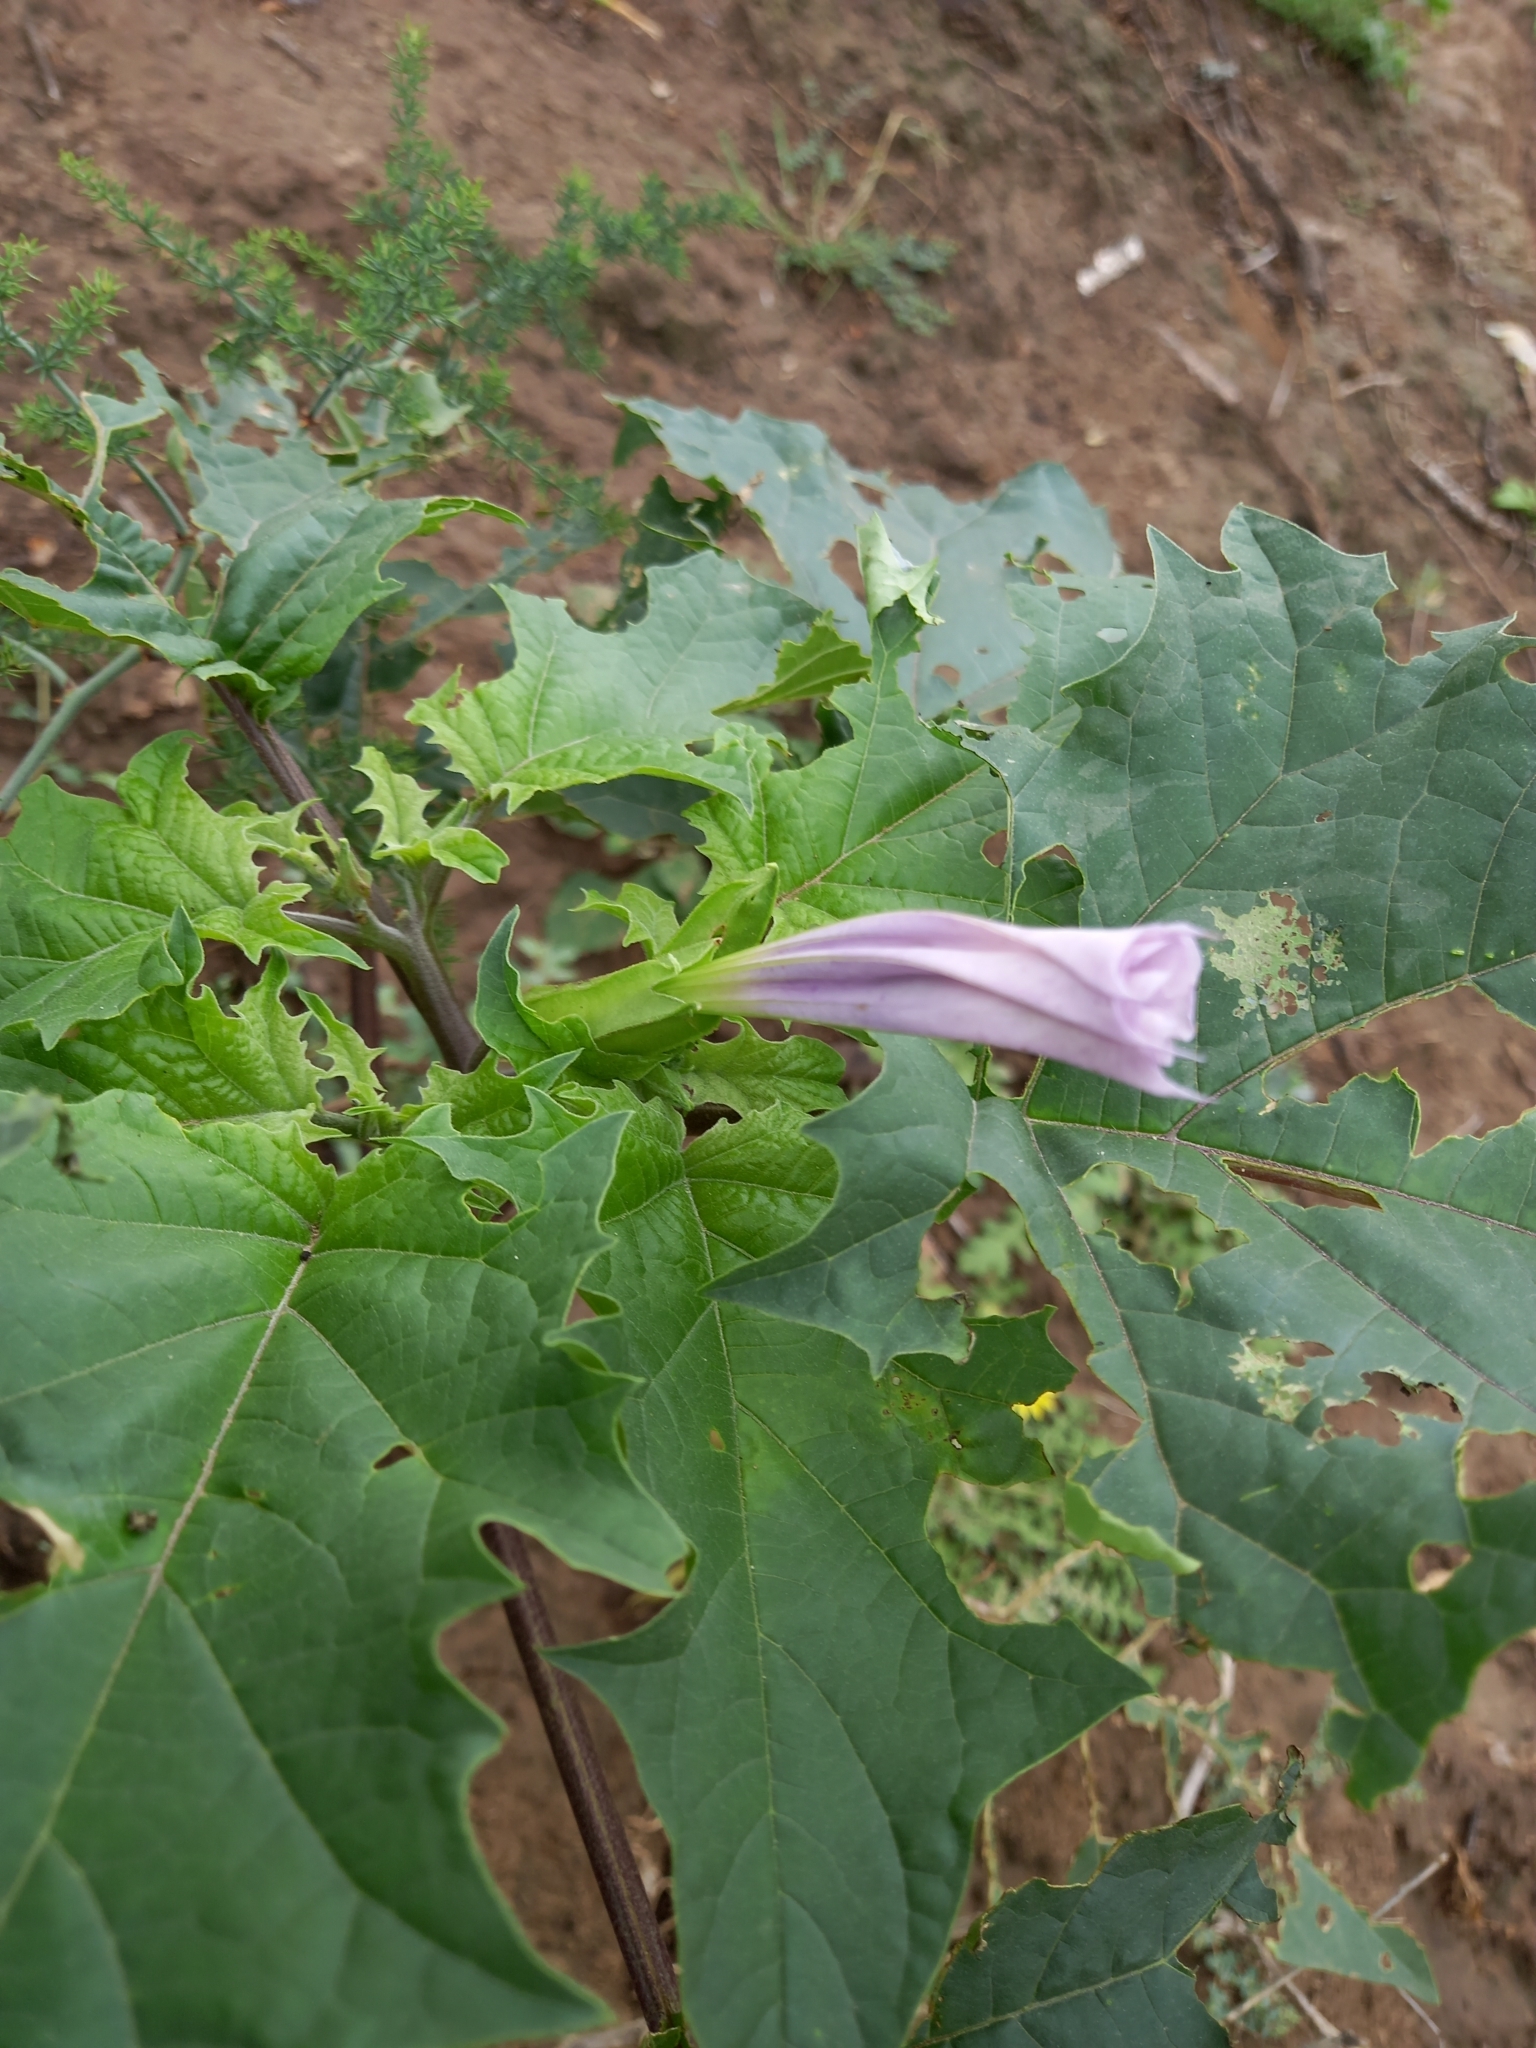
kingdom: Plantae
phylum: Tracheophyta
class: Magnoliopsida
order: Solanales
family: Solanaceae
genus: Datura
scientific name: Datura stramonium
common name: Thorn-apple
